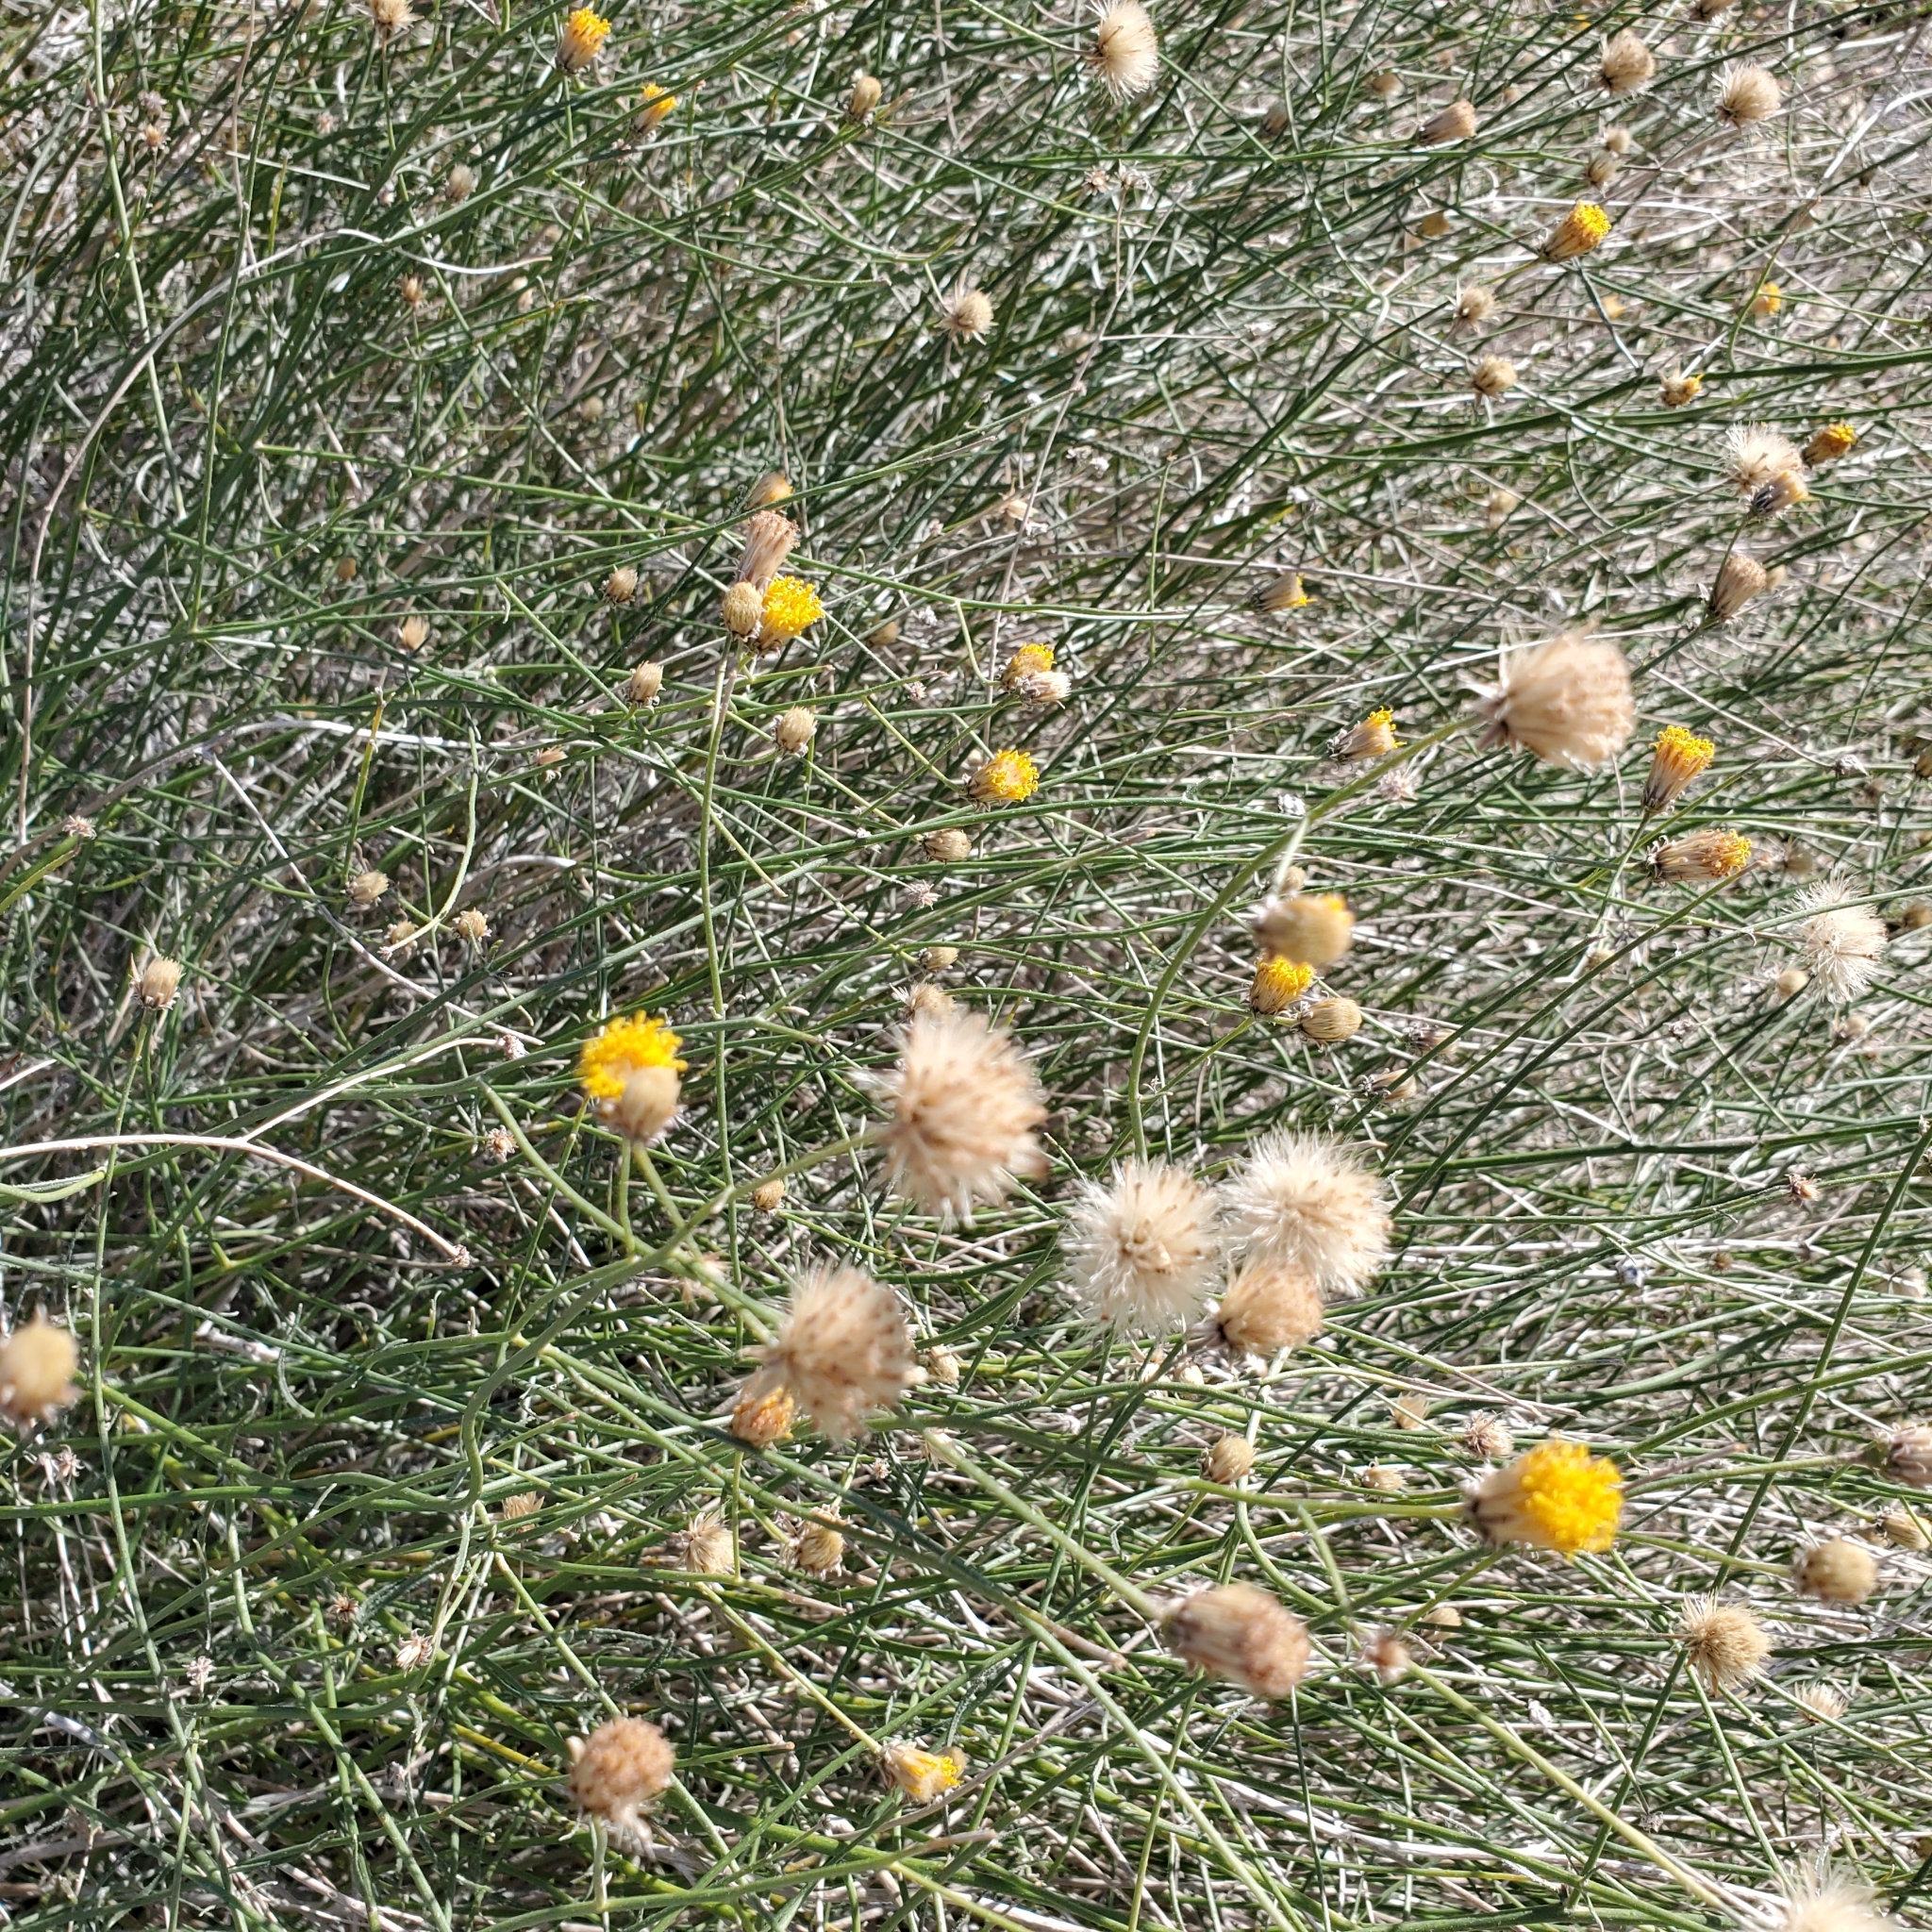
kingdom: Plantae
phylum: Tracheophyta
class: Magnoliopsida
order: Asterales
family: Asteraceae
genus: Bebbia
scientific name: Bebbia juncea
